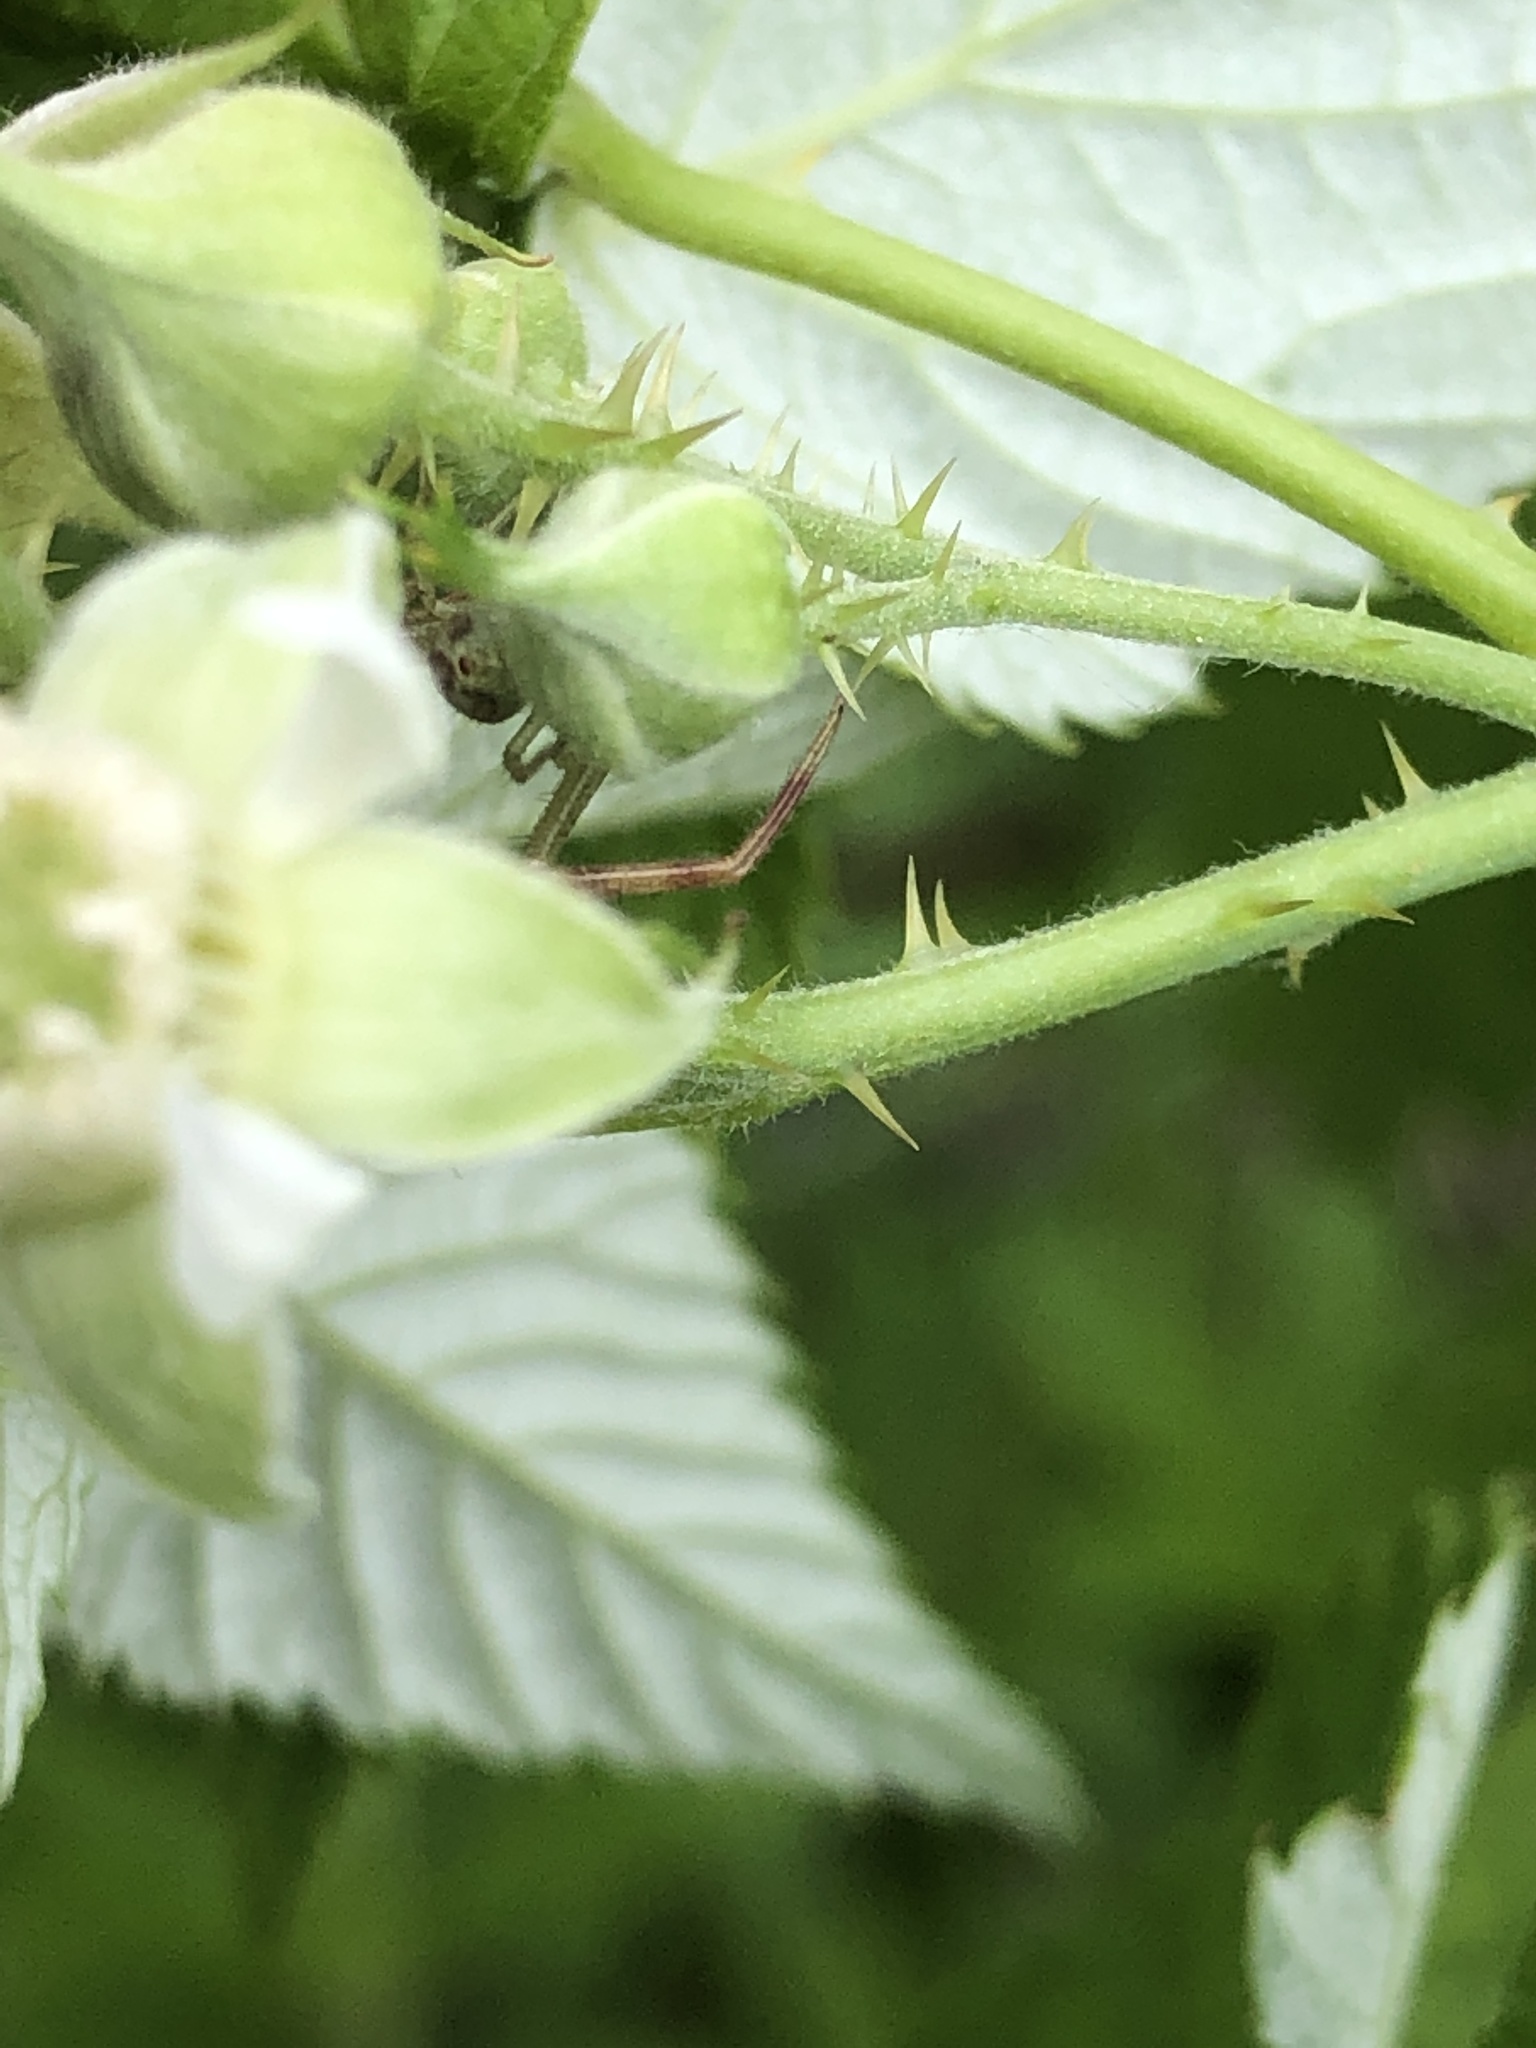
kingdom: Plantae
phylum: Tracheophyta
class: Magnoliopsida
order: Rosales
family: Rosaceae
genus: Rubus
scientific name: Rubus occidentalis
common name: Black raspberry
